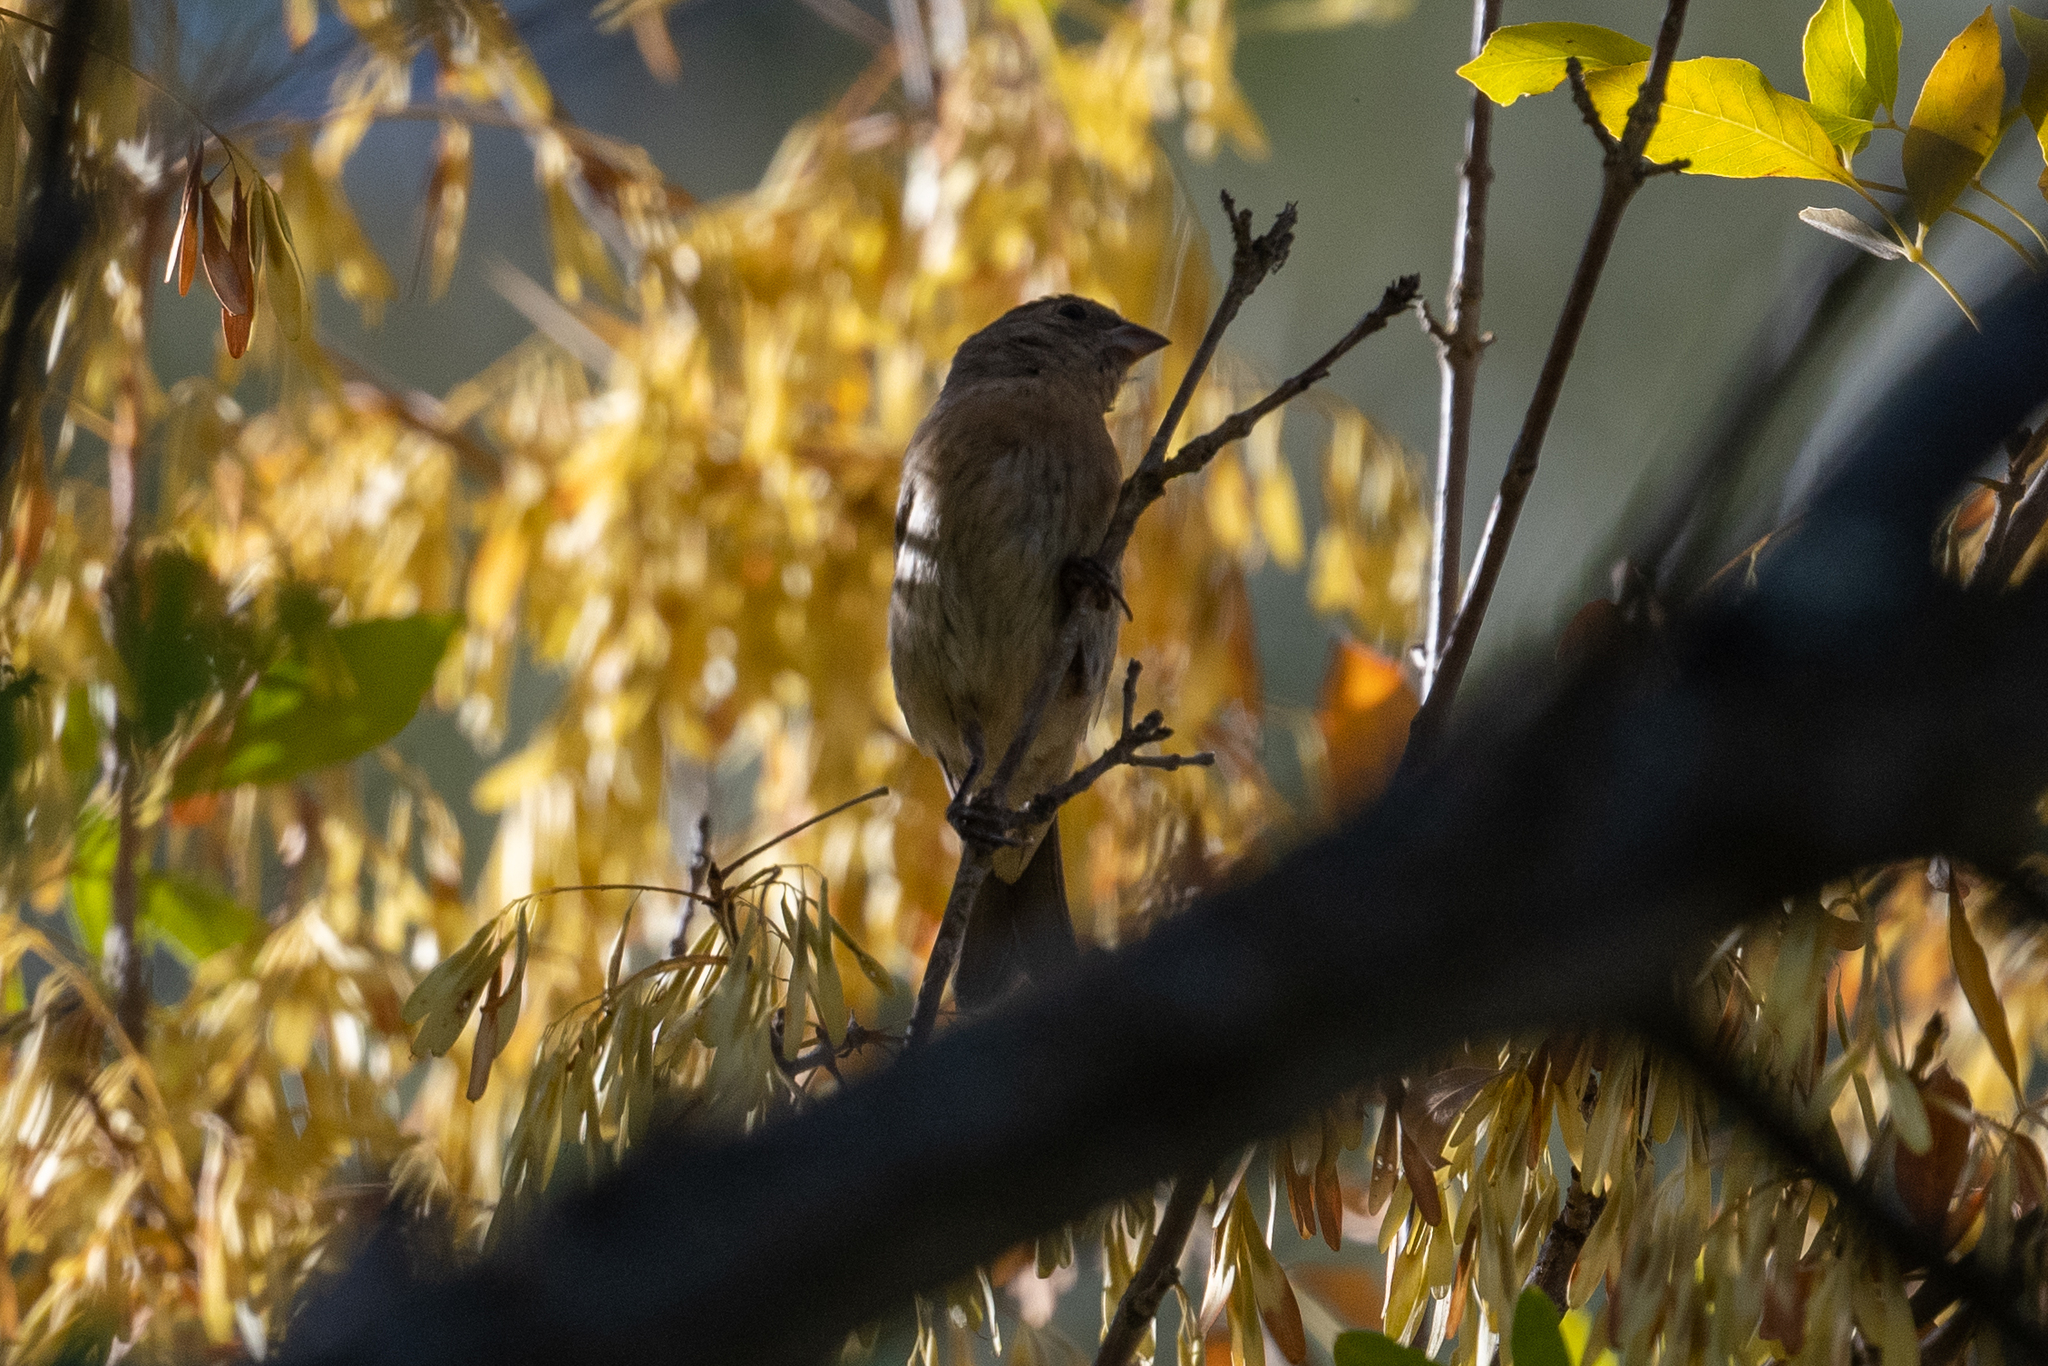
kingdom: Animalia
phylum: Chordata
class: Aves
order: Passeriformes
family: Cardinalidae
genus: Passerina
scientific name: Passerina amoena
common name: Lazuli bunting
